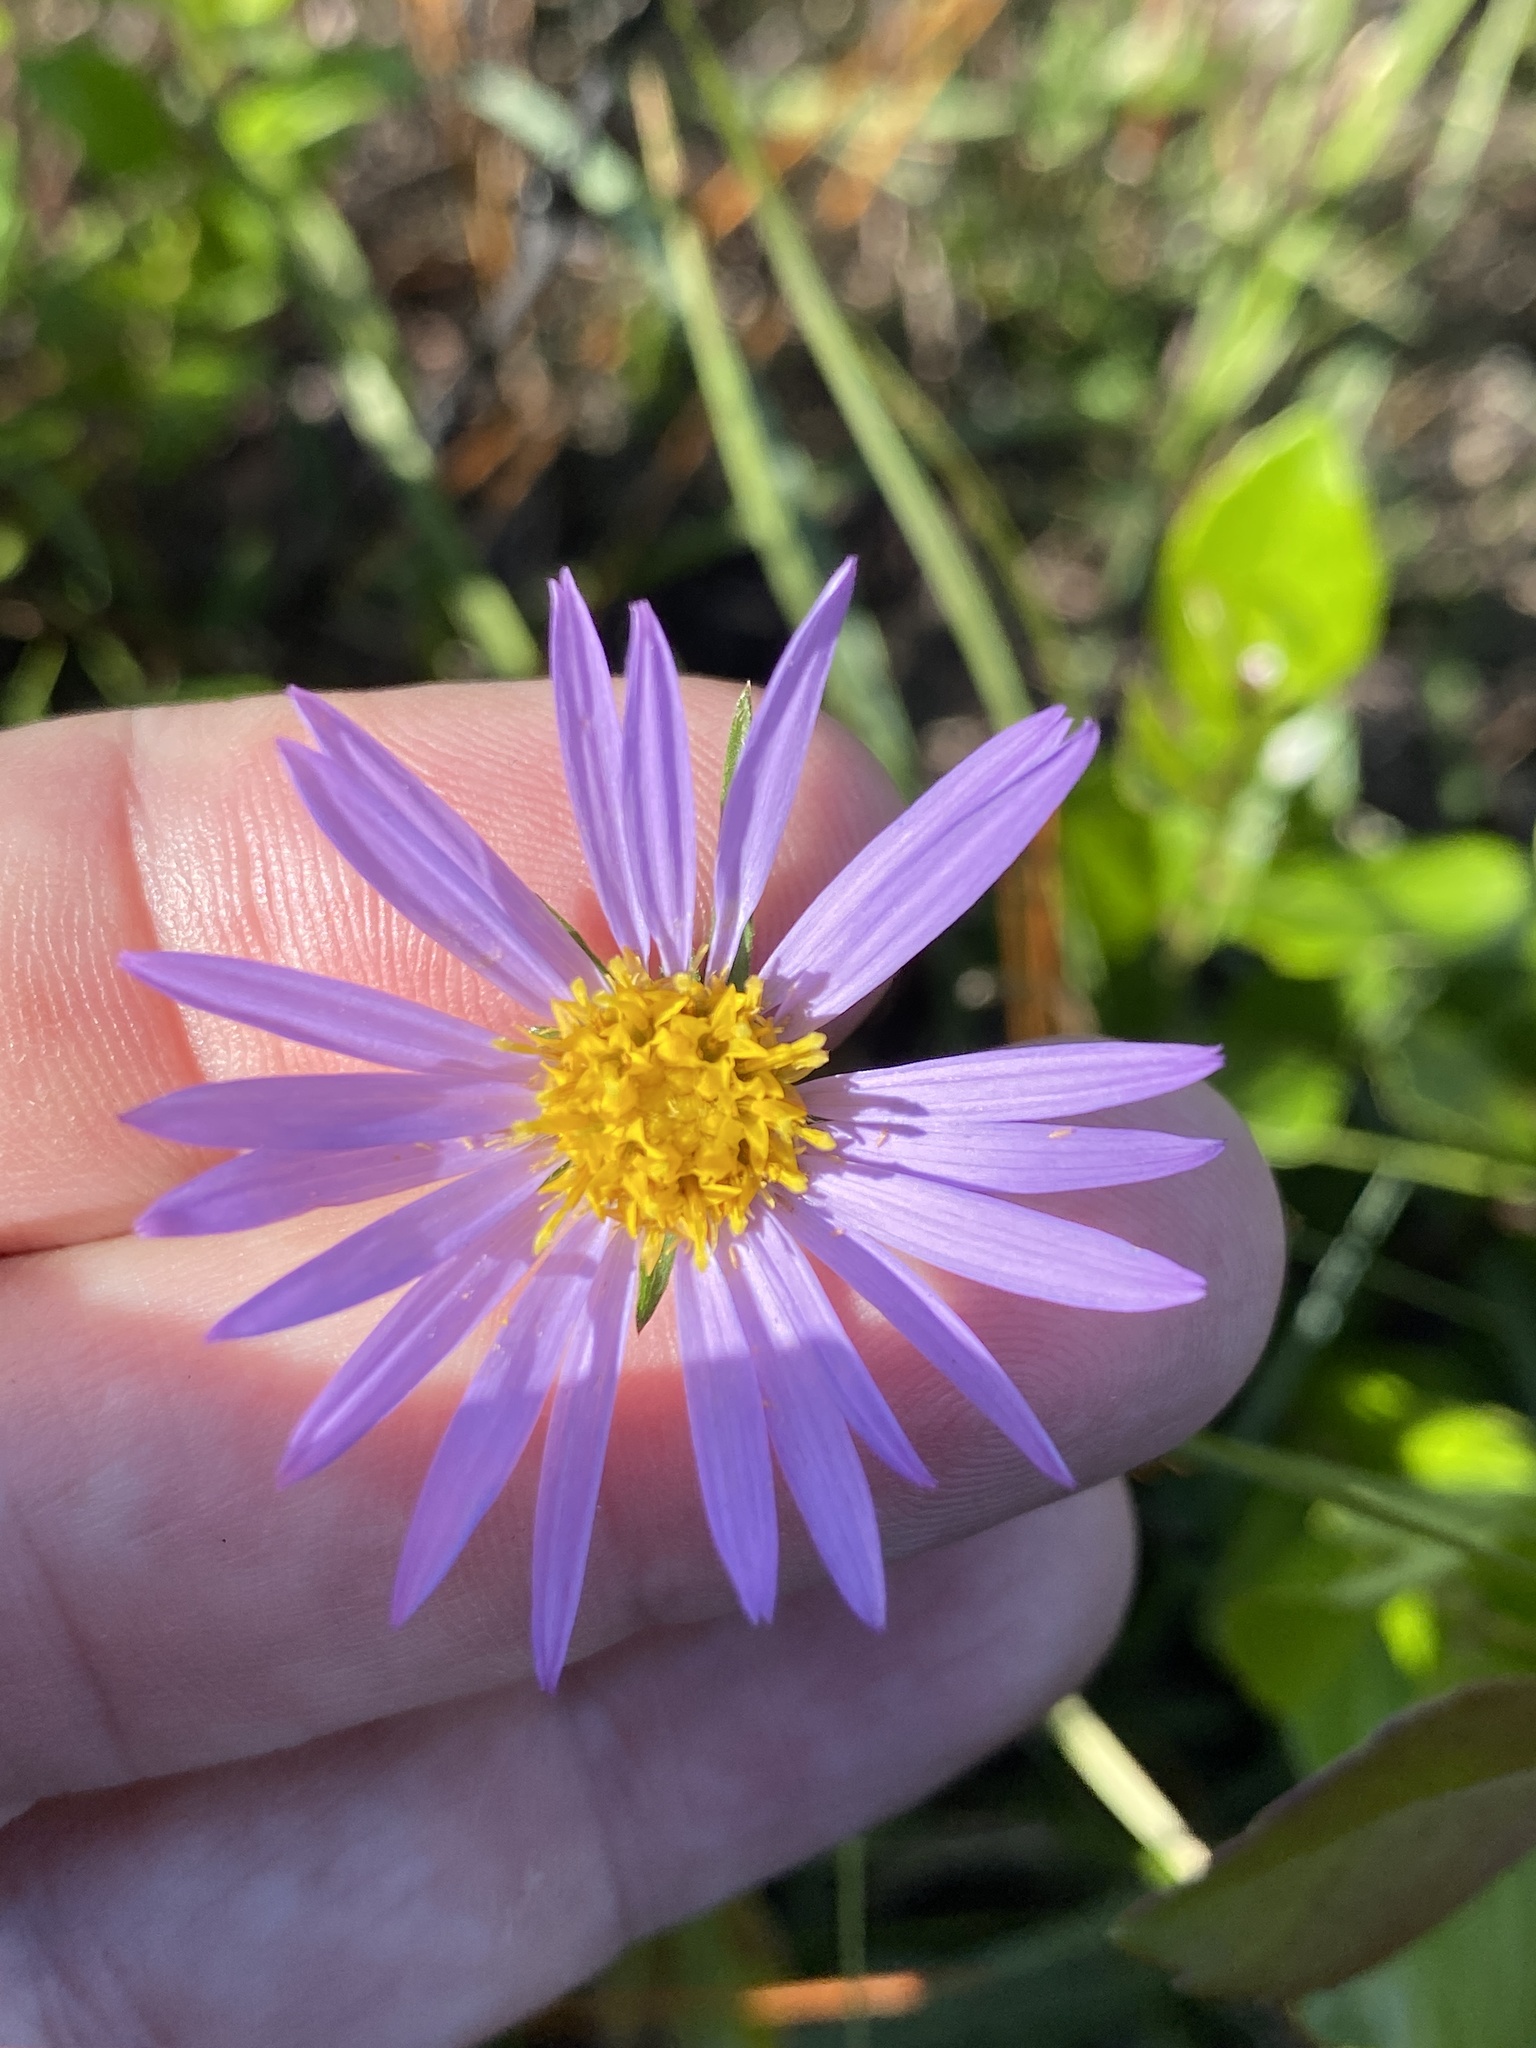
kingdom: Plantae
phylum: Tracheophyta
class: Magnoliopsida
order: Asterales
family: Asteraceae
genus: Eurybia
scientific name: Eurybia paludosa
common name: Southern swamp aster
